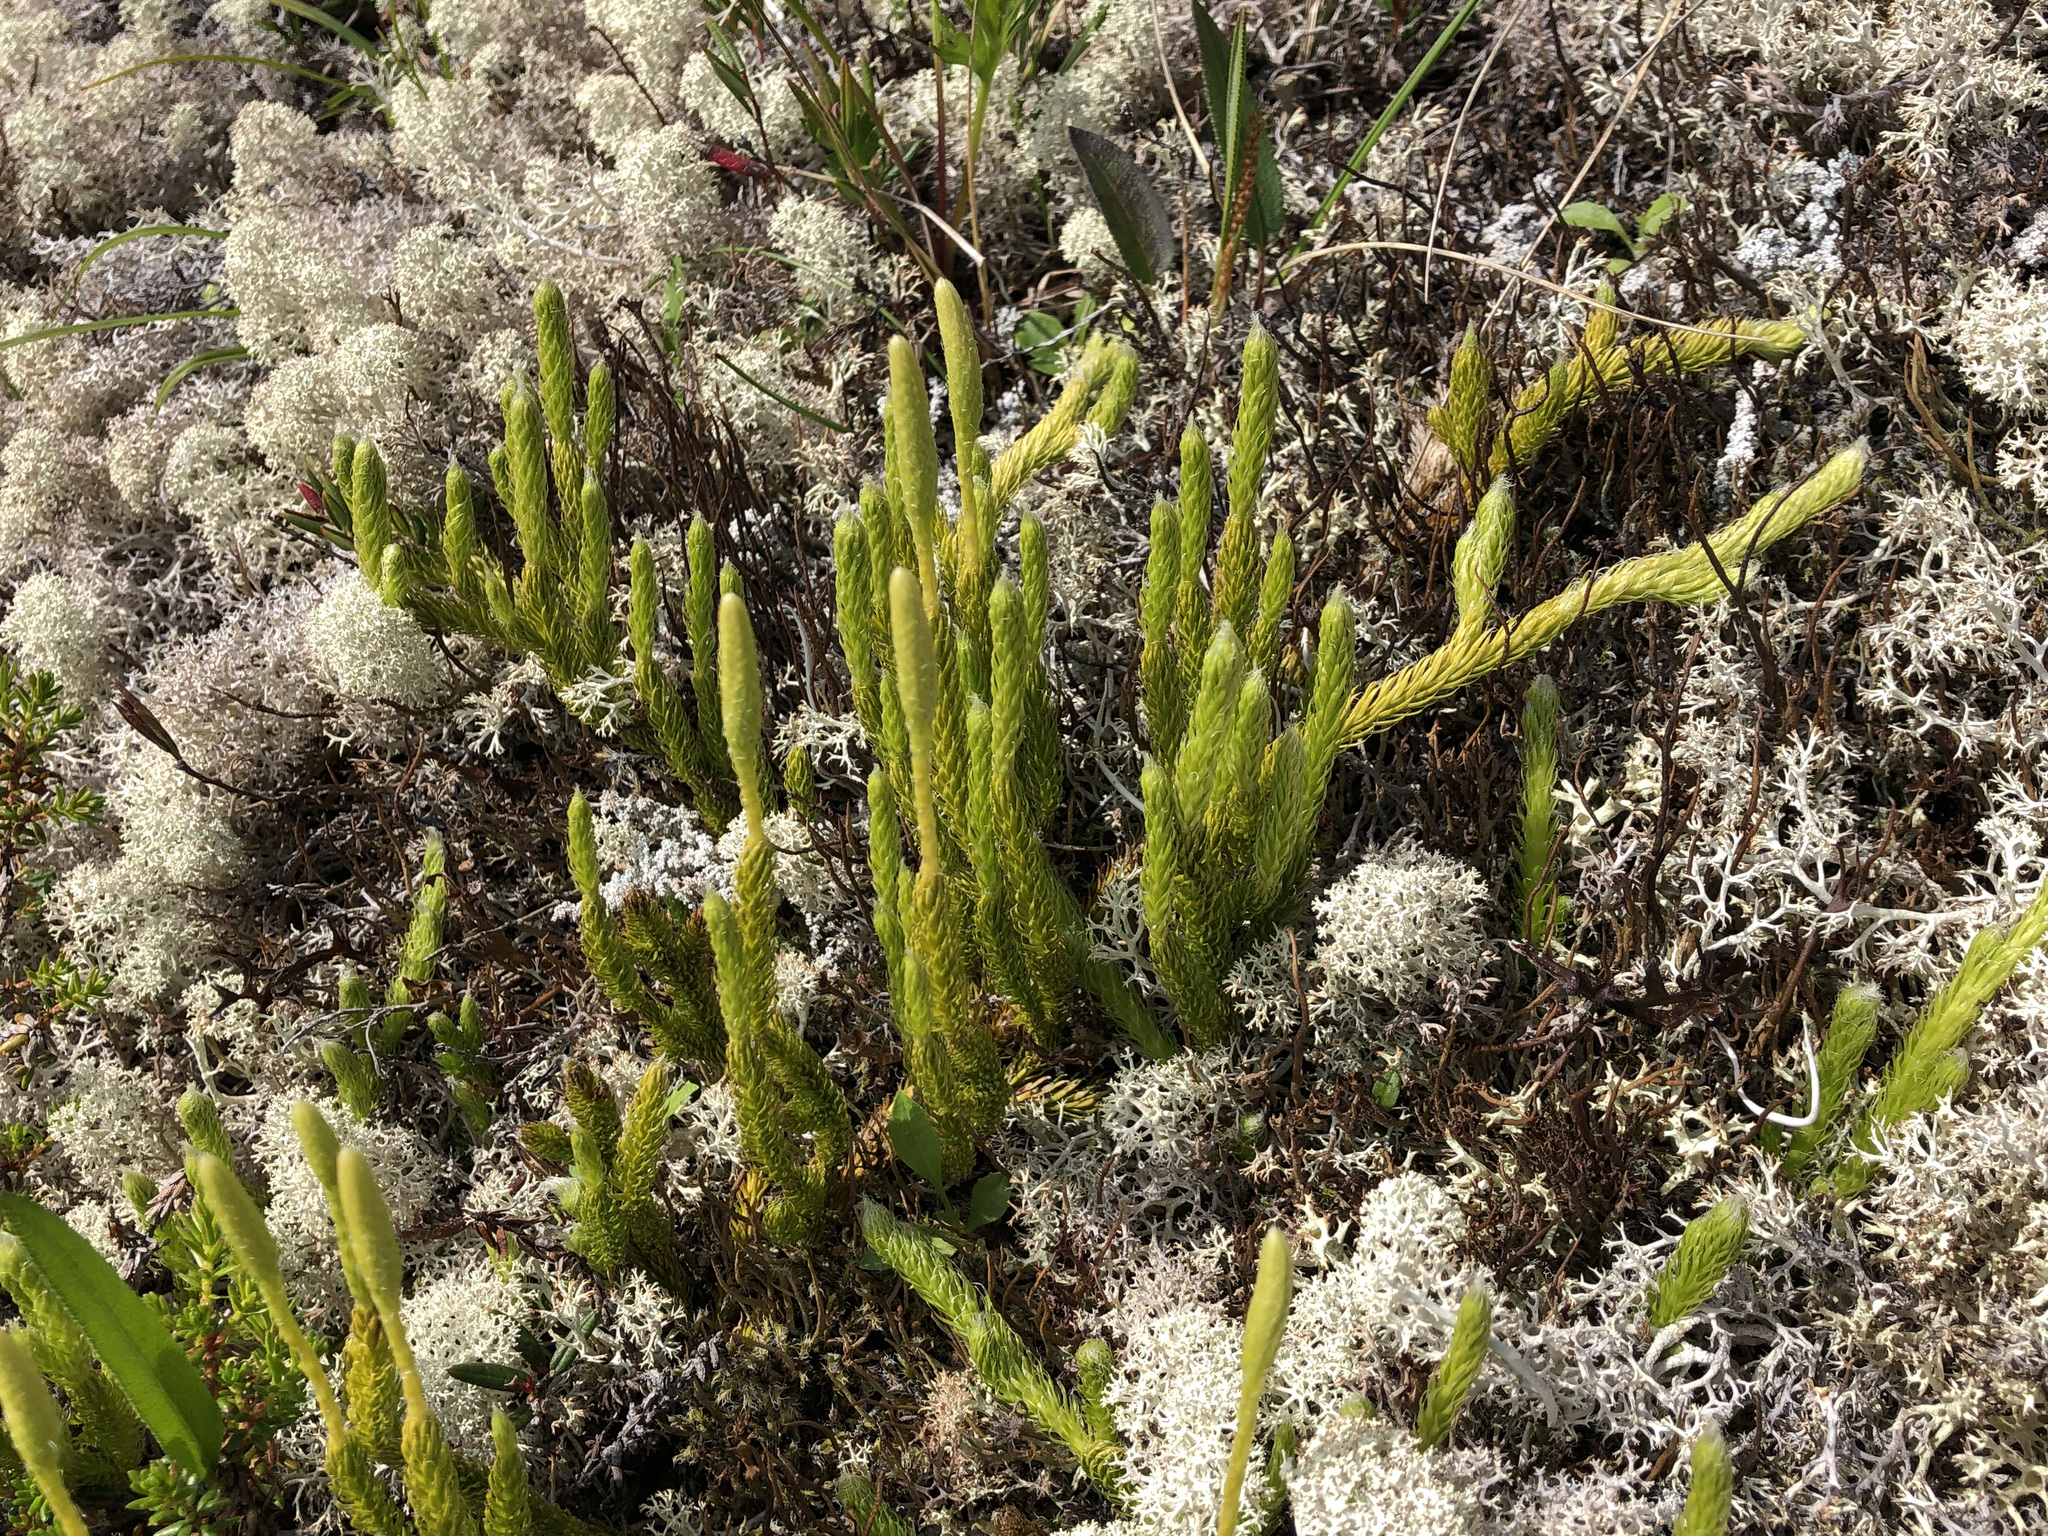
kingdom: Plantae
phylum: Tracheophyta
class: Lycopodiopsida
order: Lycopodiales
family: Lycopodiaceae
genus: Lycopodium
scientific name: Lycopodium lagopus
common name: One-cone clubmoss
